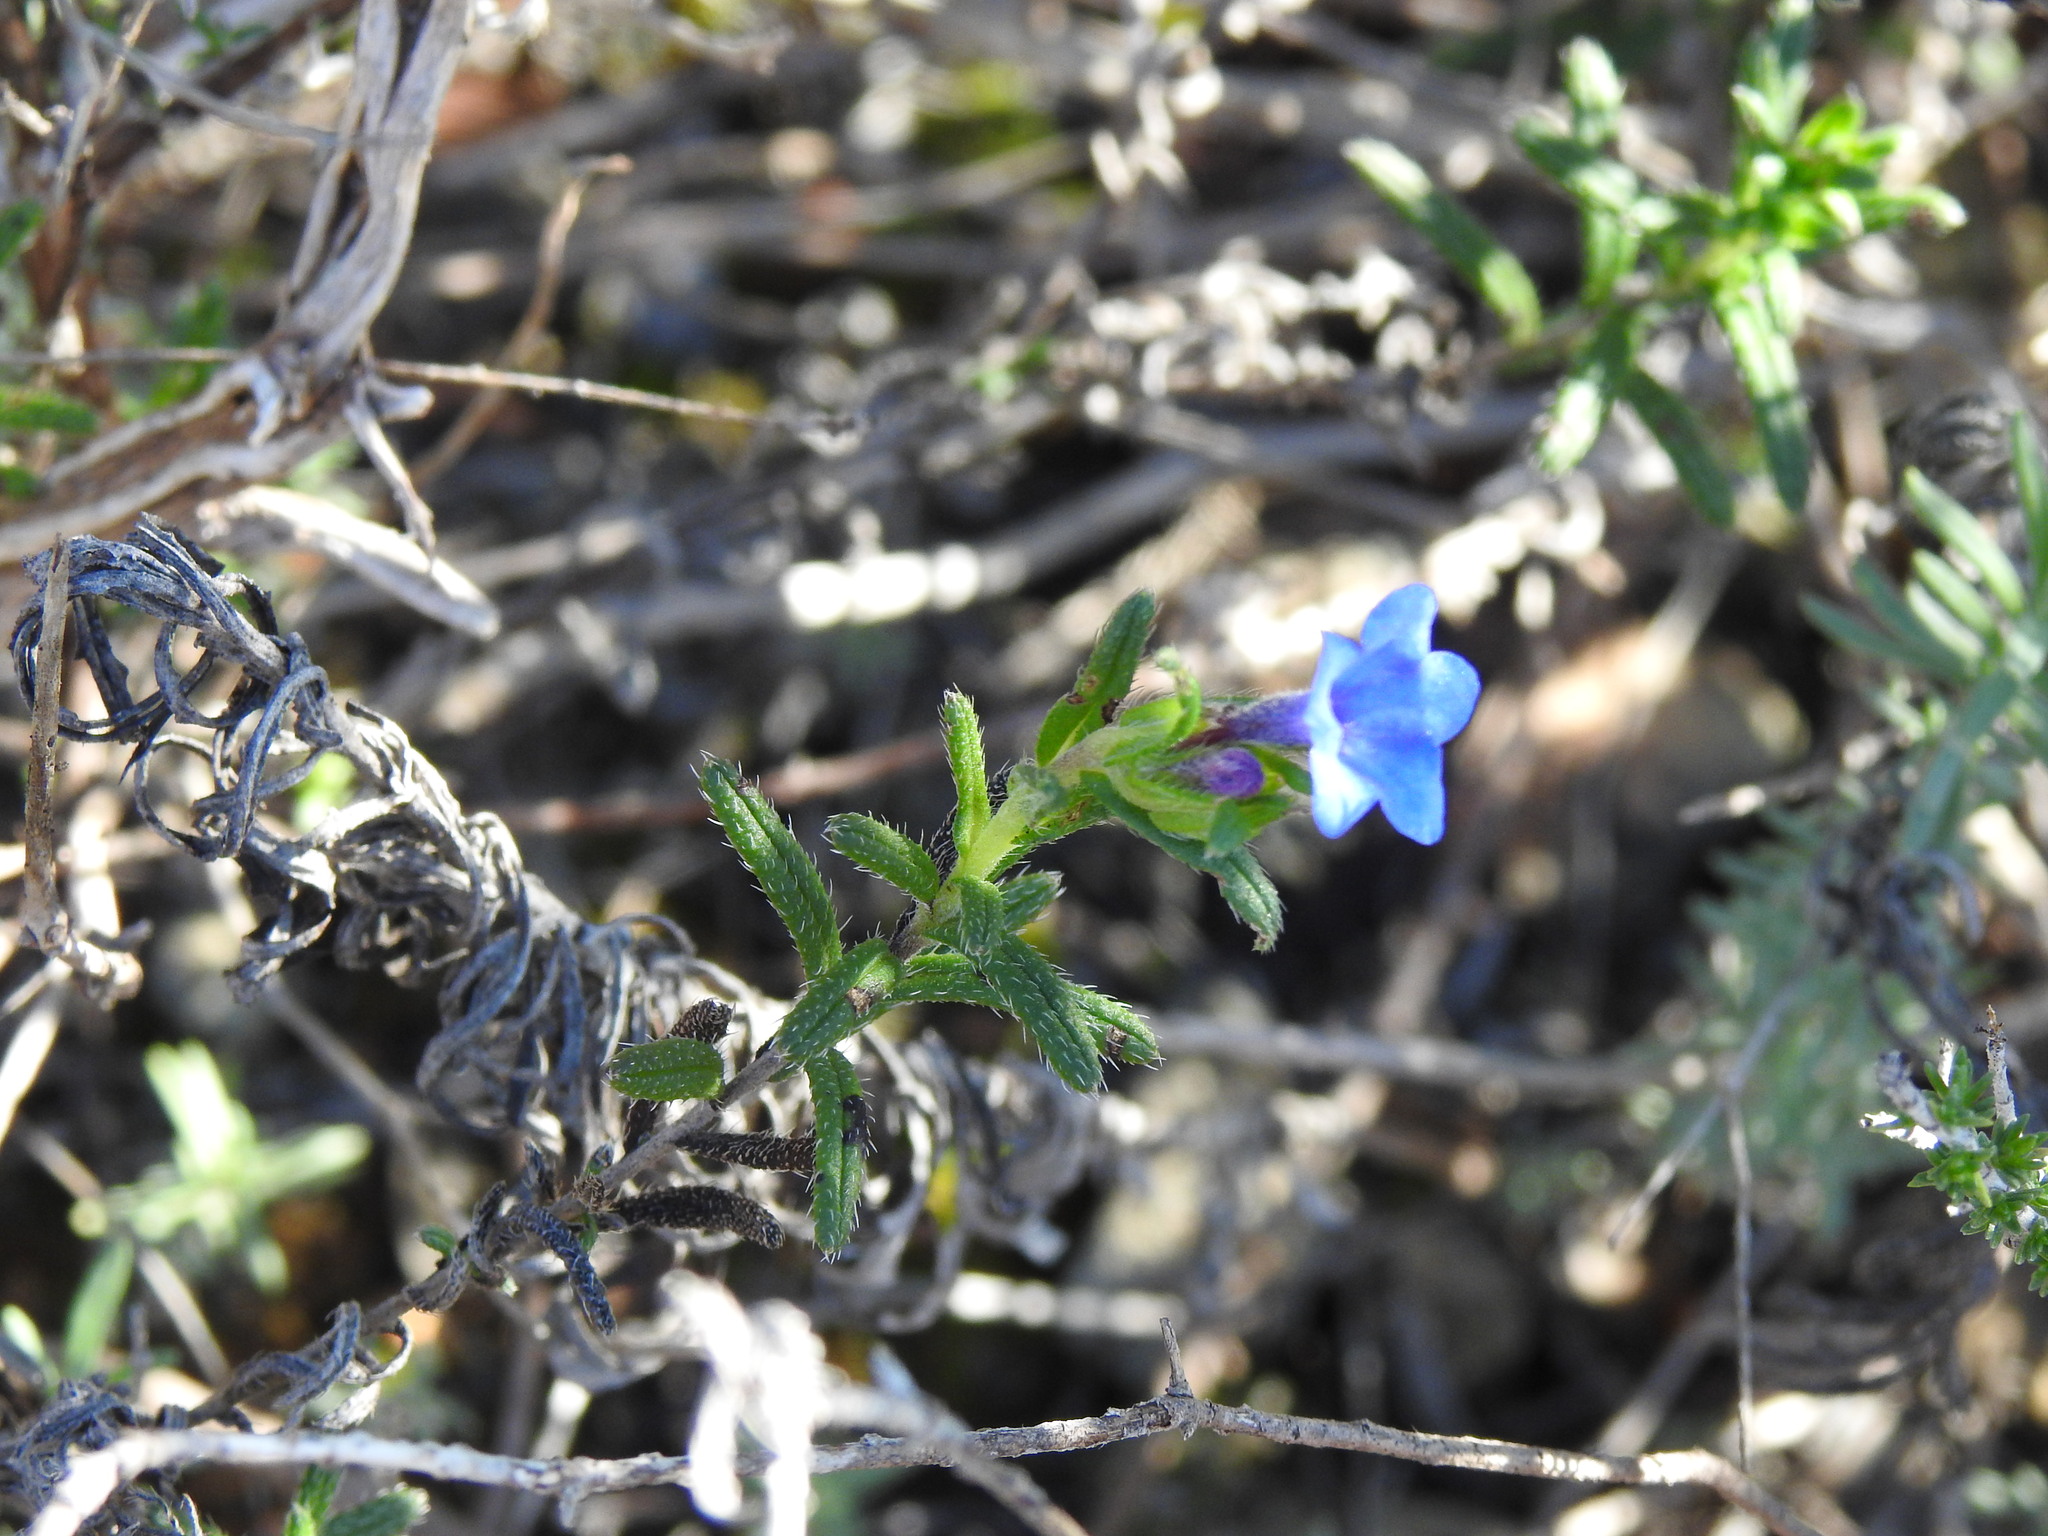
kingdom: Plantae
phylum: Tracheophyta
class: Magnoliopsida
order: Boraginales
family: Boraginaceae
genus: Glandora
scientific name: Glandora prostrata
